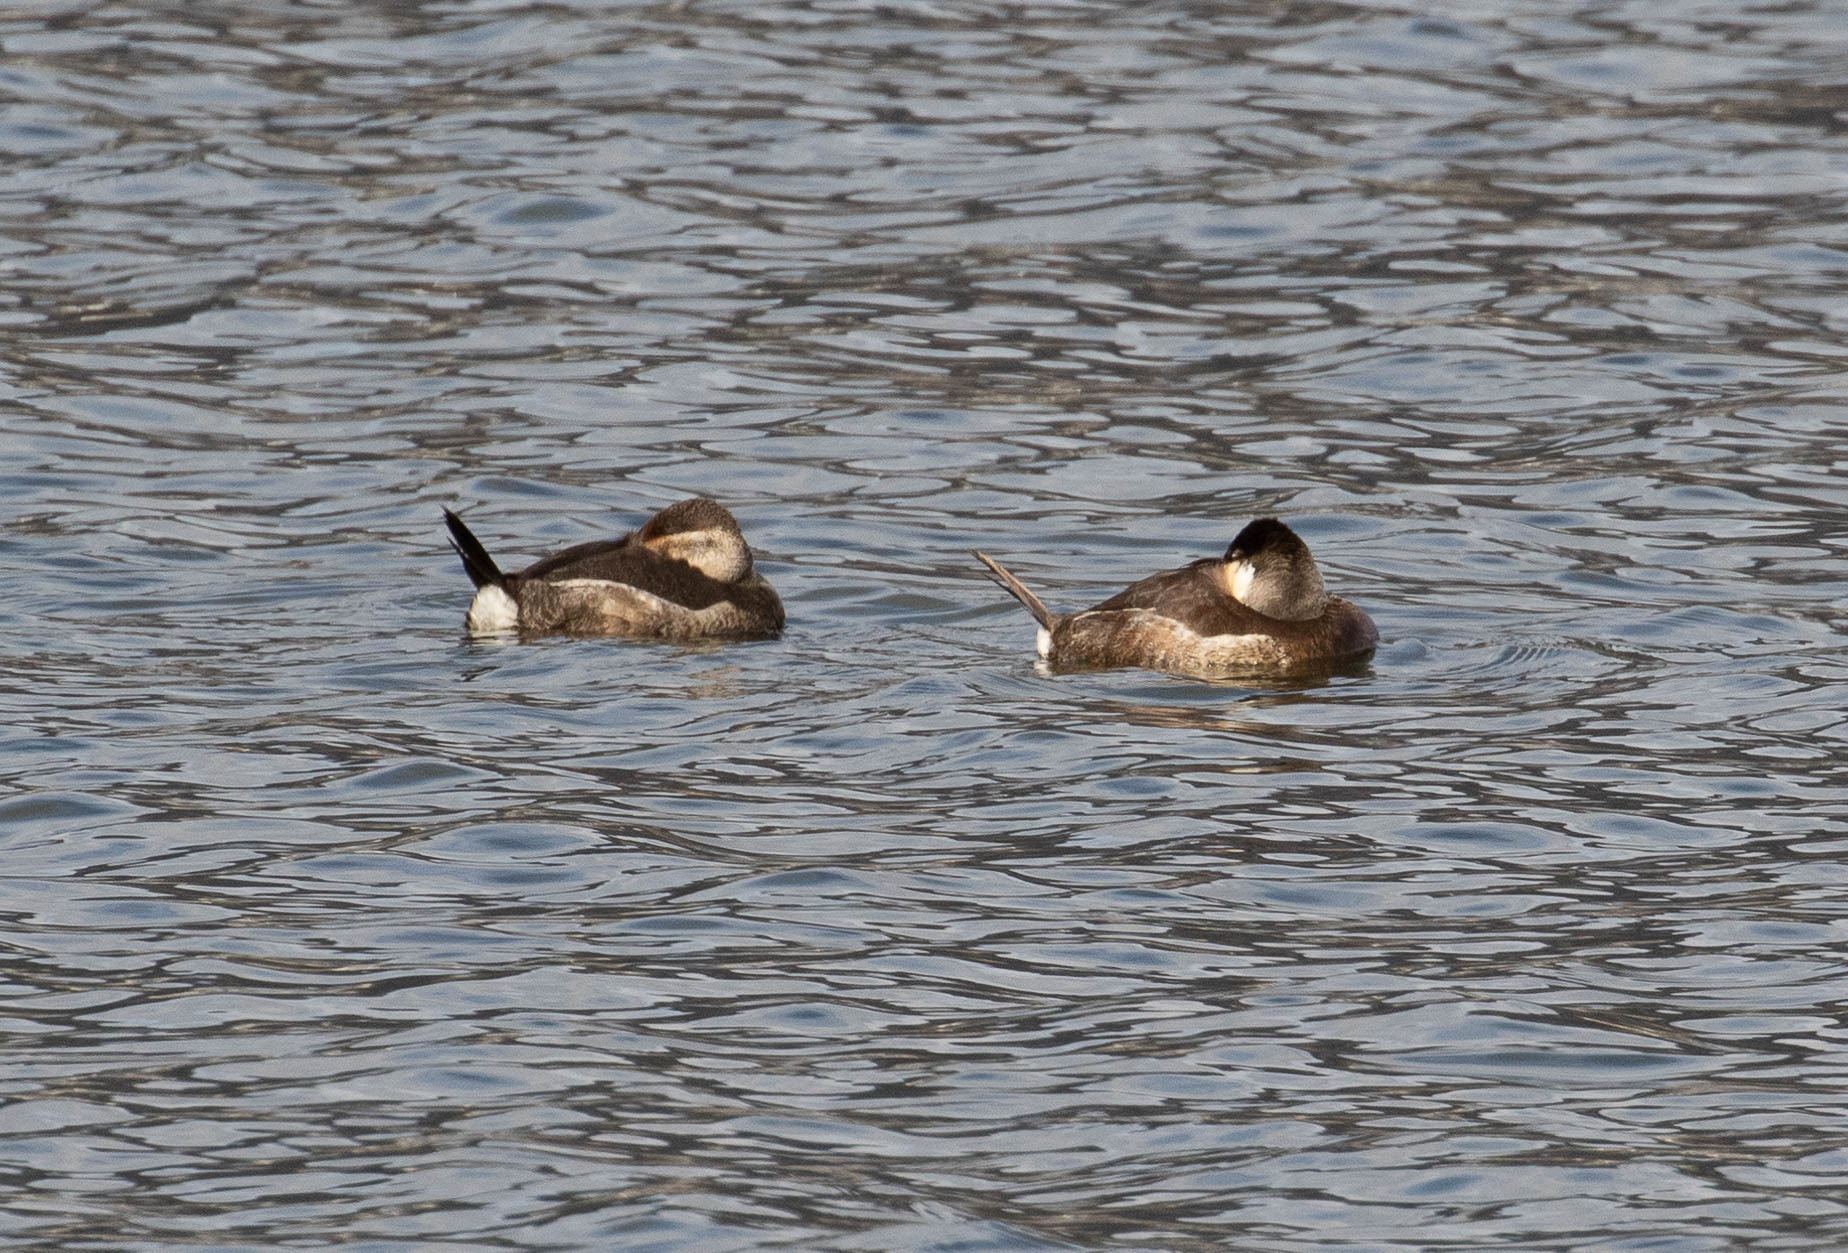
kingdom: Animalia
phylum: Chordata
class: Aves
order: Anseriformes
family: Anatidae
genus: Oxyura
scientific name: Oxyura jamaicensis
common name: Ruddy duck
